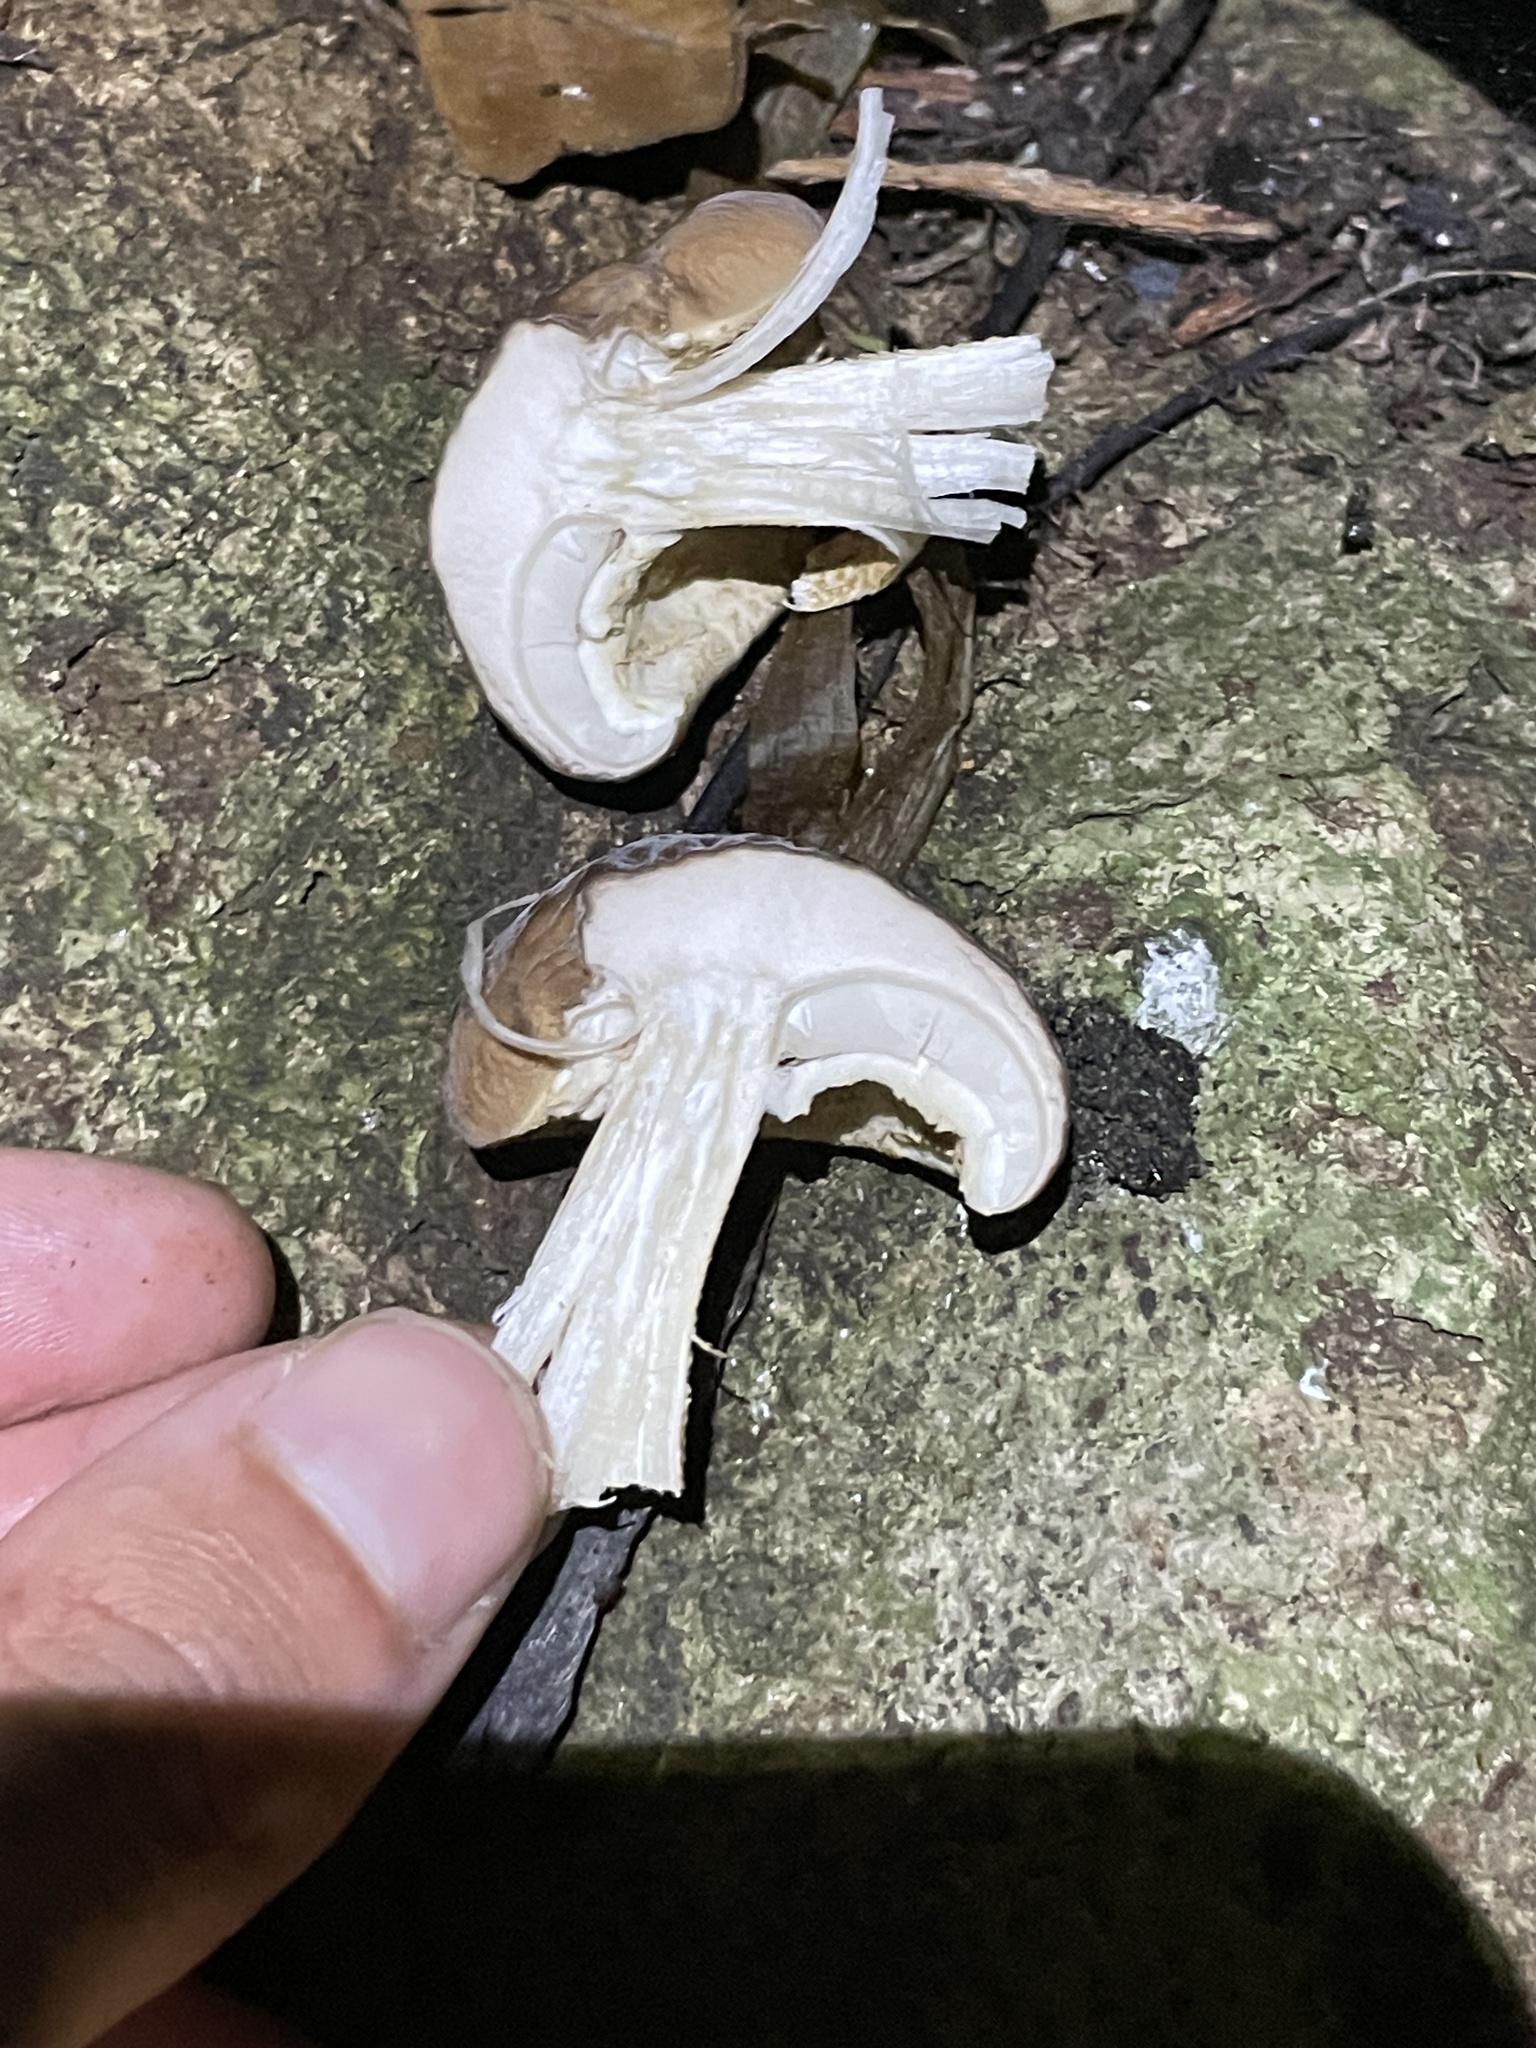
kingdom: Fungi
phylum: Basidiomycota
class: Agaricomycetes
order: Agaricales
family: Tubariaceae
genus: Cyclocybe
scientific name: Cyclocybe parasitica
